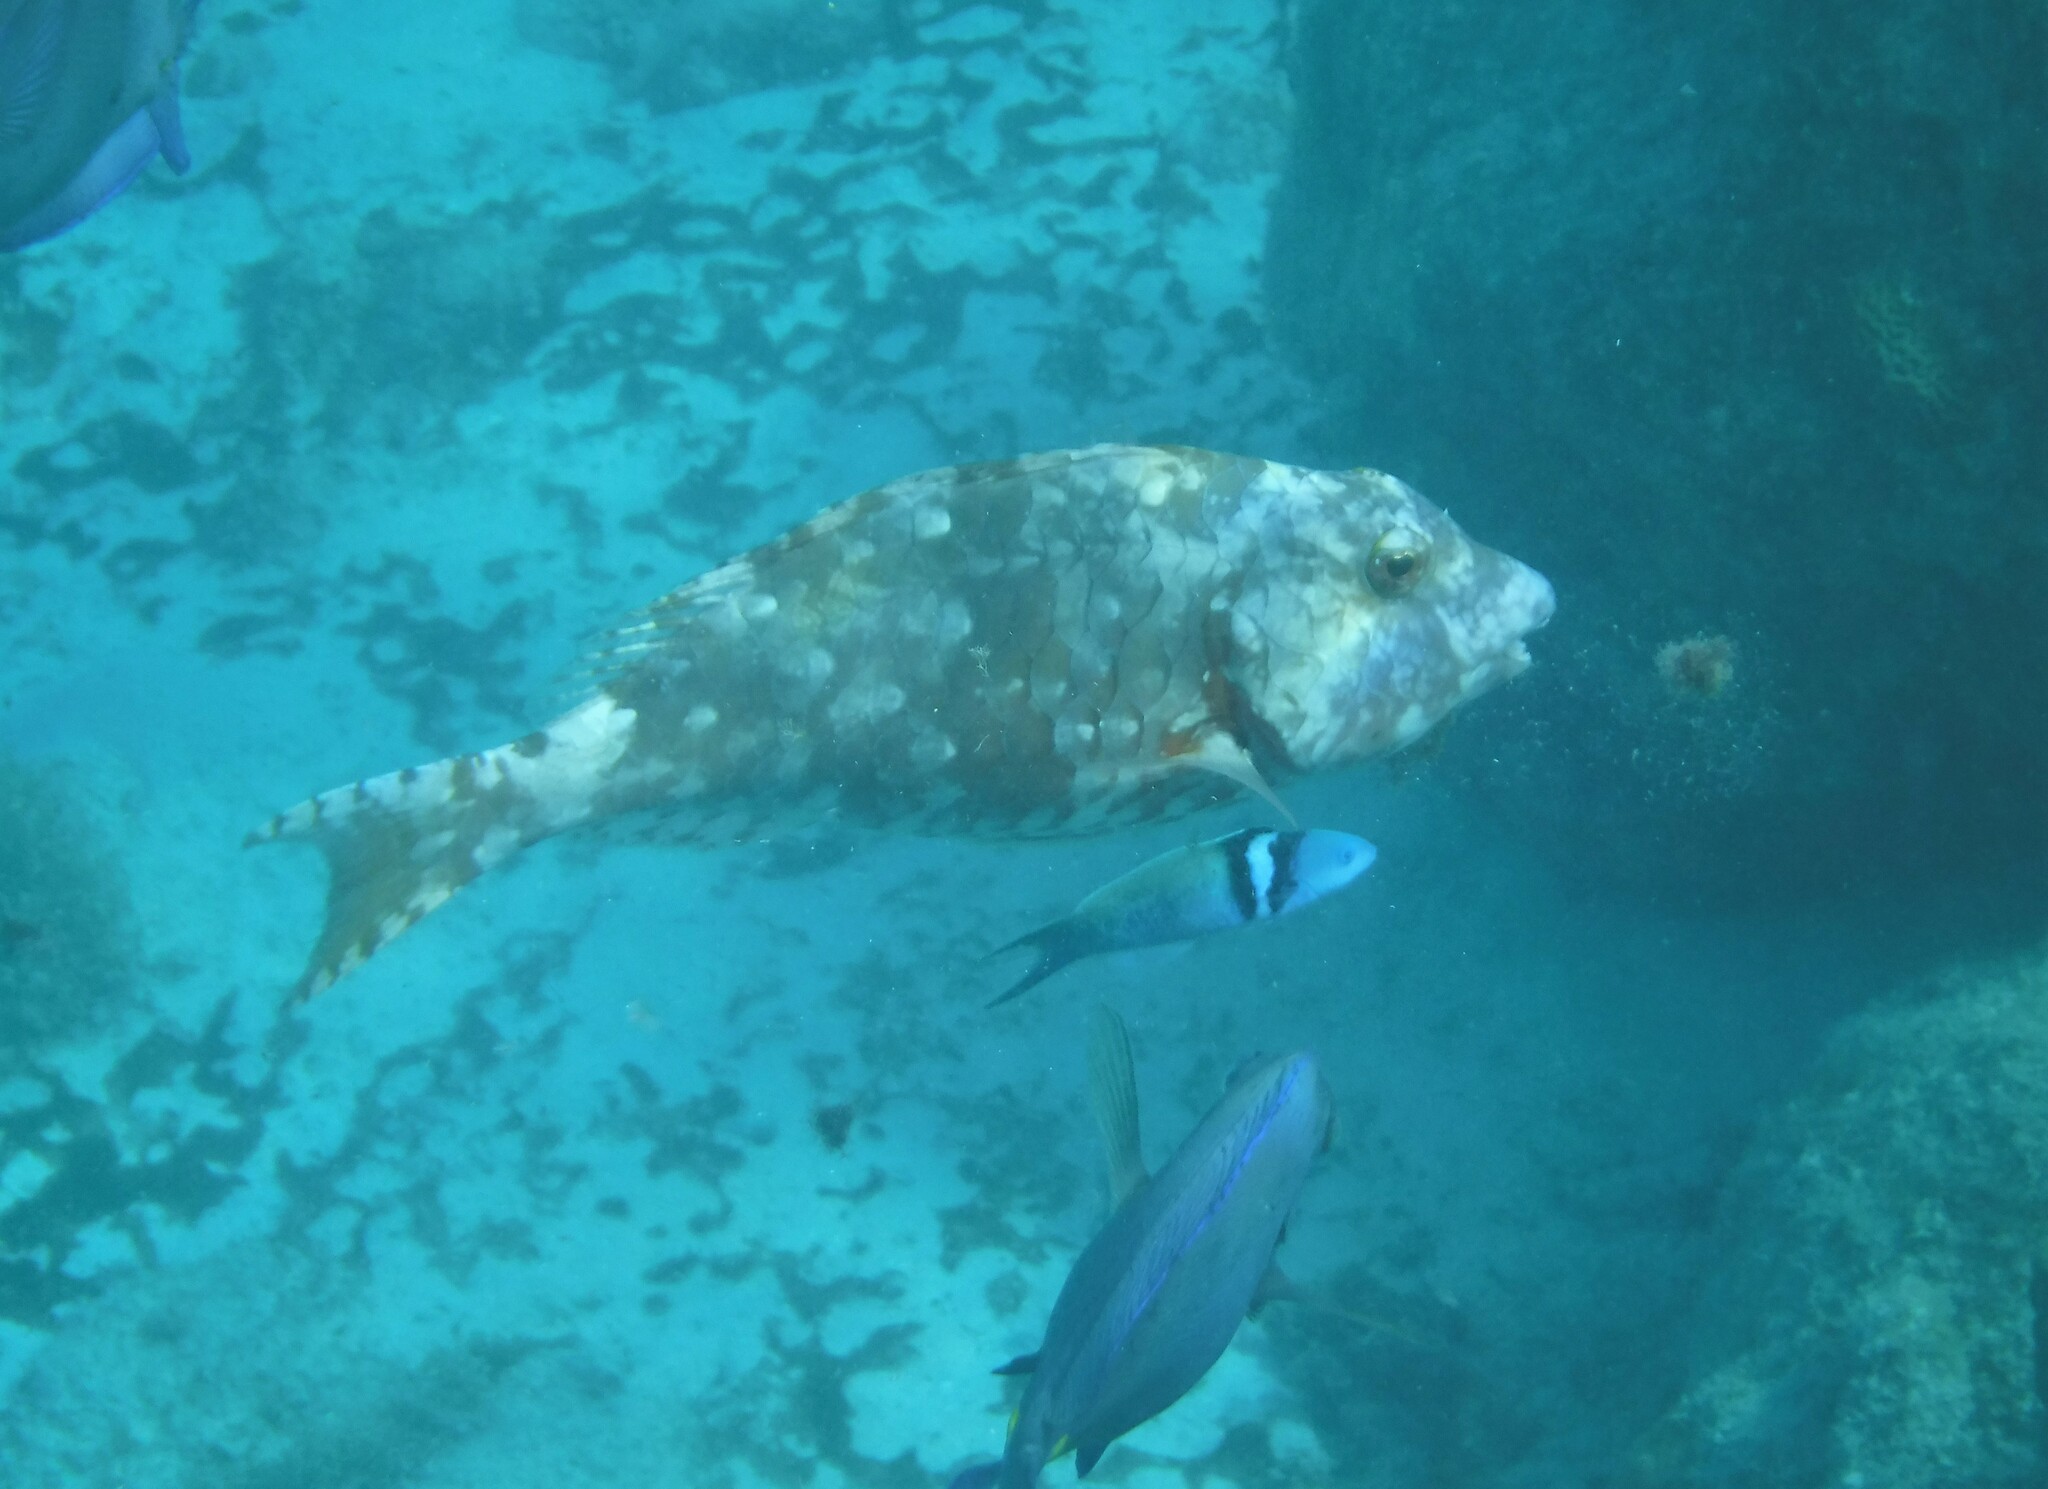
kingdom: Animalia
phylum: Chordata
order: Perciformes
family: Scaridae
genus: Sparisoma
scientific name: Sparisoma chrysopterum
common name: Redtail parrotfish
